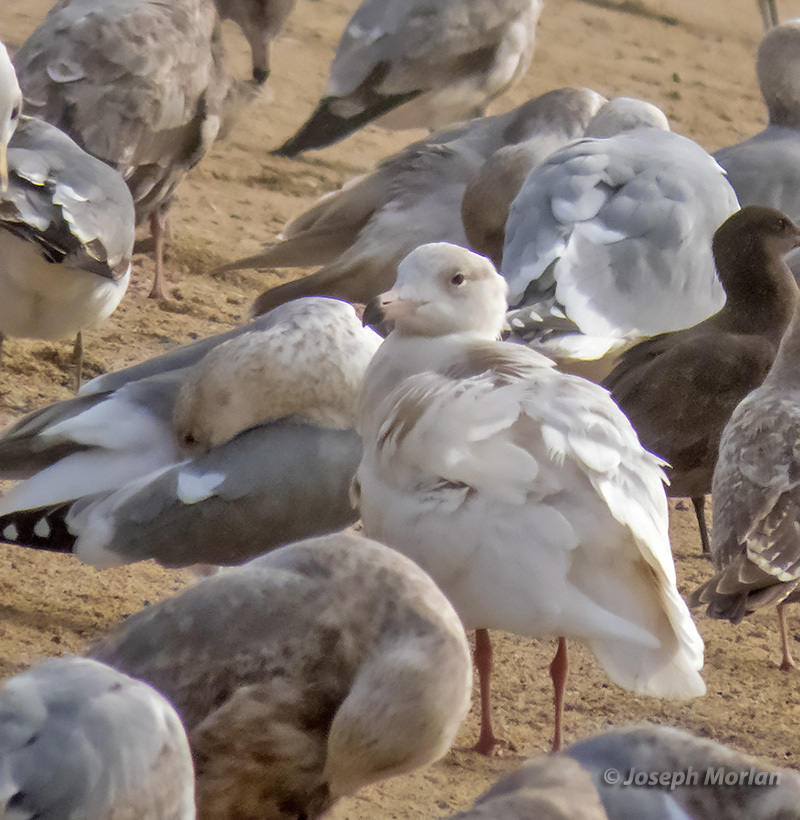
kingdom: Animalia
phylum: Chordata
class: Aves
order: Charadriiformes
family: Laridae
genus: Larus
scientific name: Larus hyperboreus
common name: Glaucous gull
